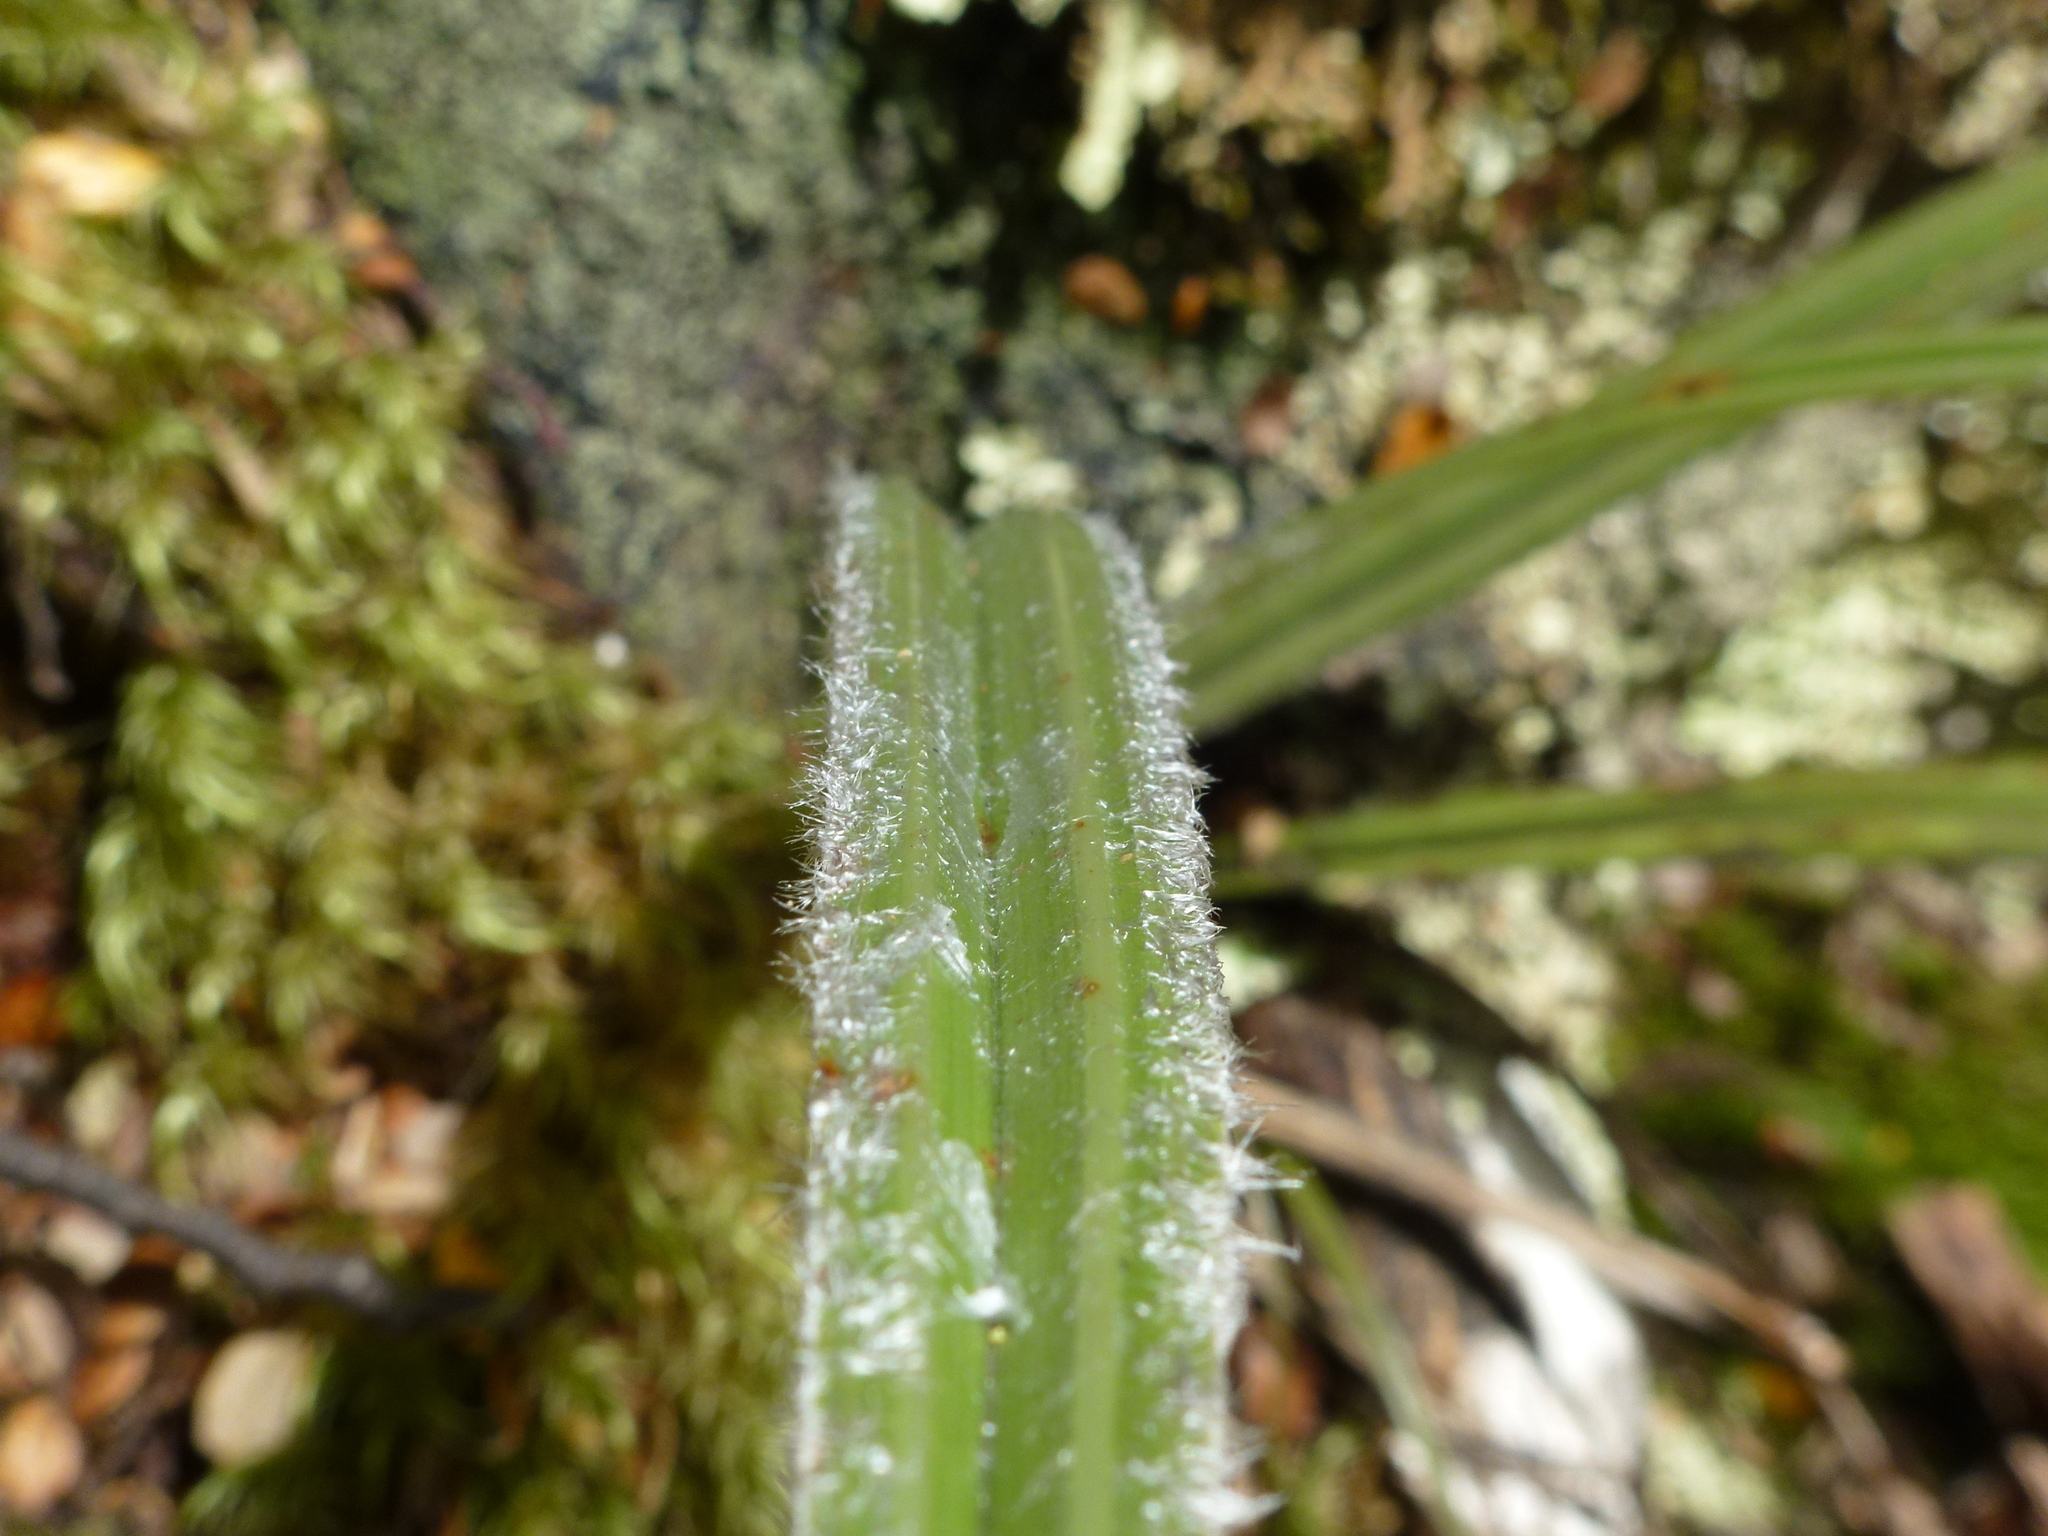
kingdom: Plantae
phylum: Tracheophyta
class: Liliopsida
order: Asparagales
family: Asteliaceae
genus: Astelia
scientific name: Astelia nervosa
